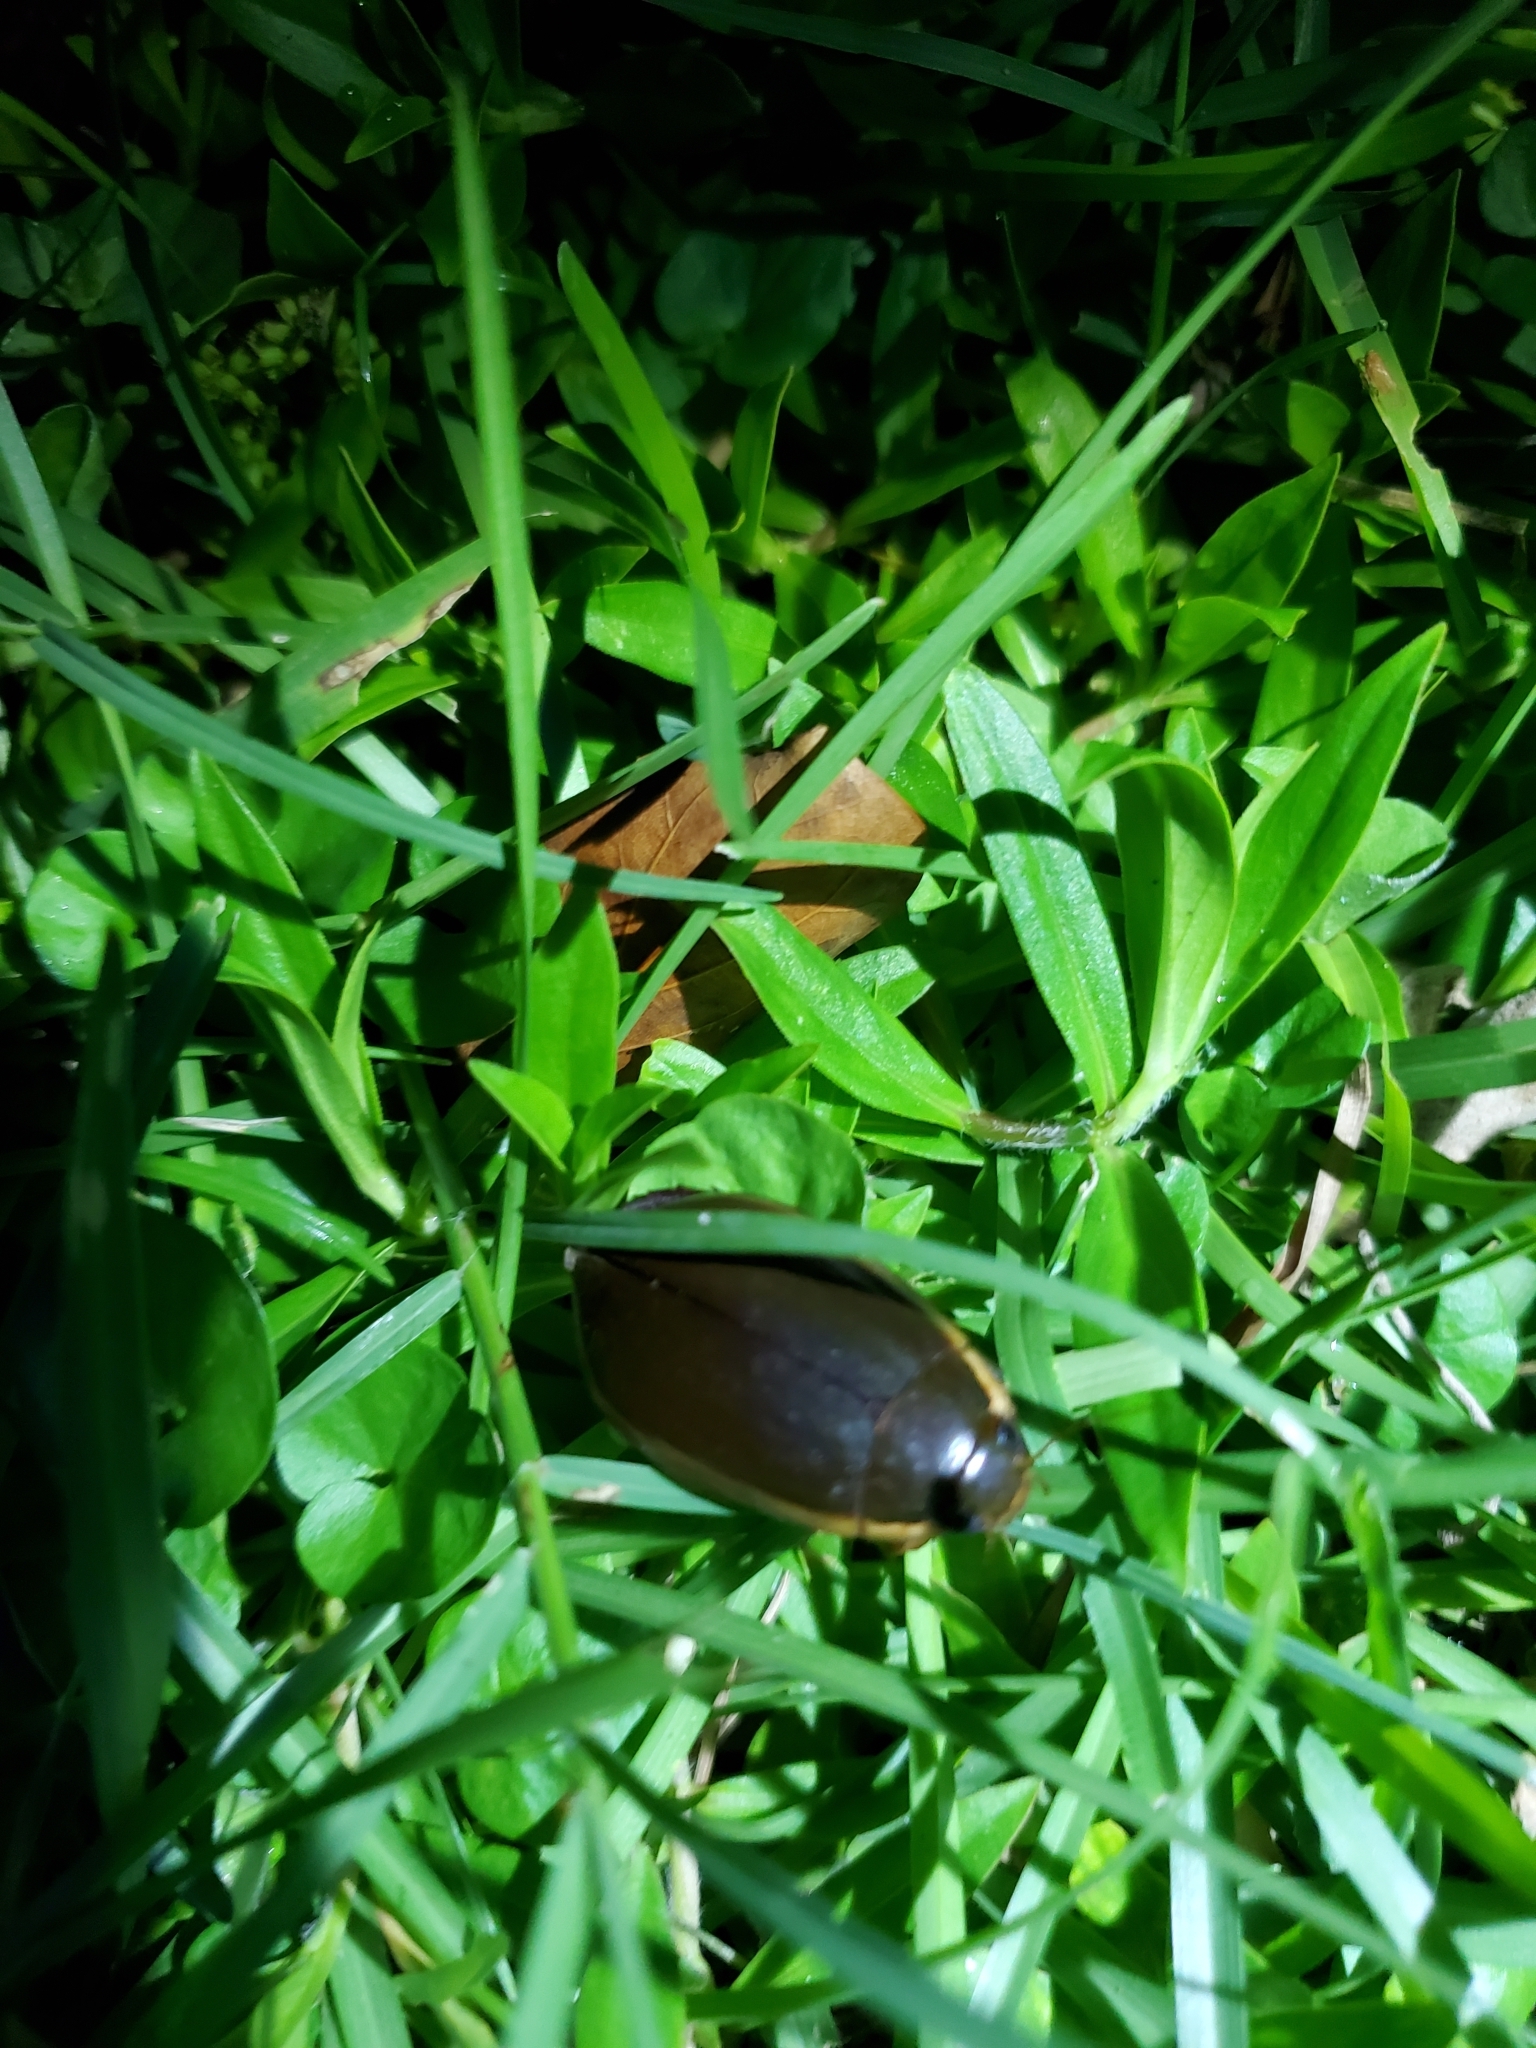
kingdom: Animalia
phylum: Arthropoda
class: Insecta
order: Coleoptera
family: Dytiscidae
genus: Cybister
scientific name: Cybister fimbriolatus
